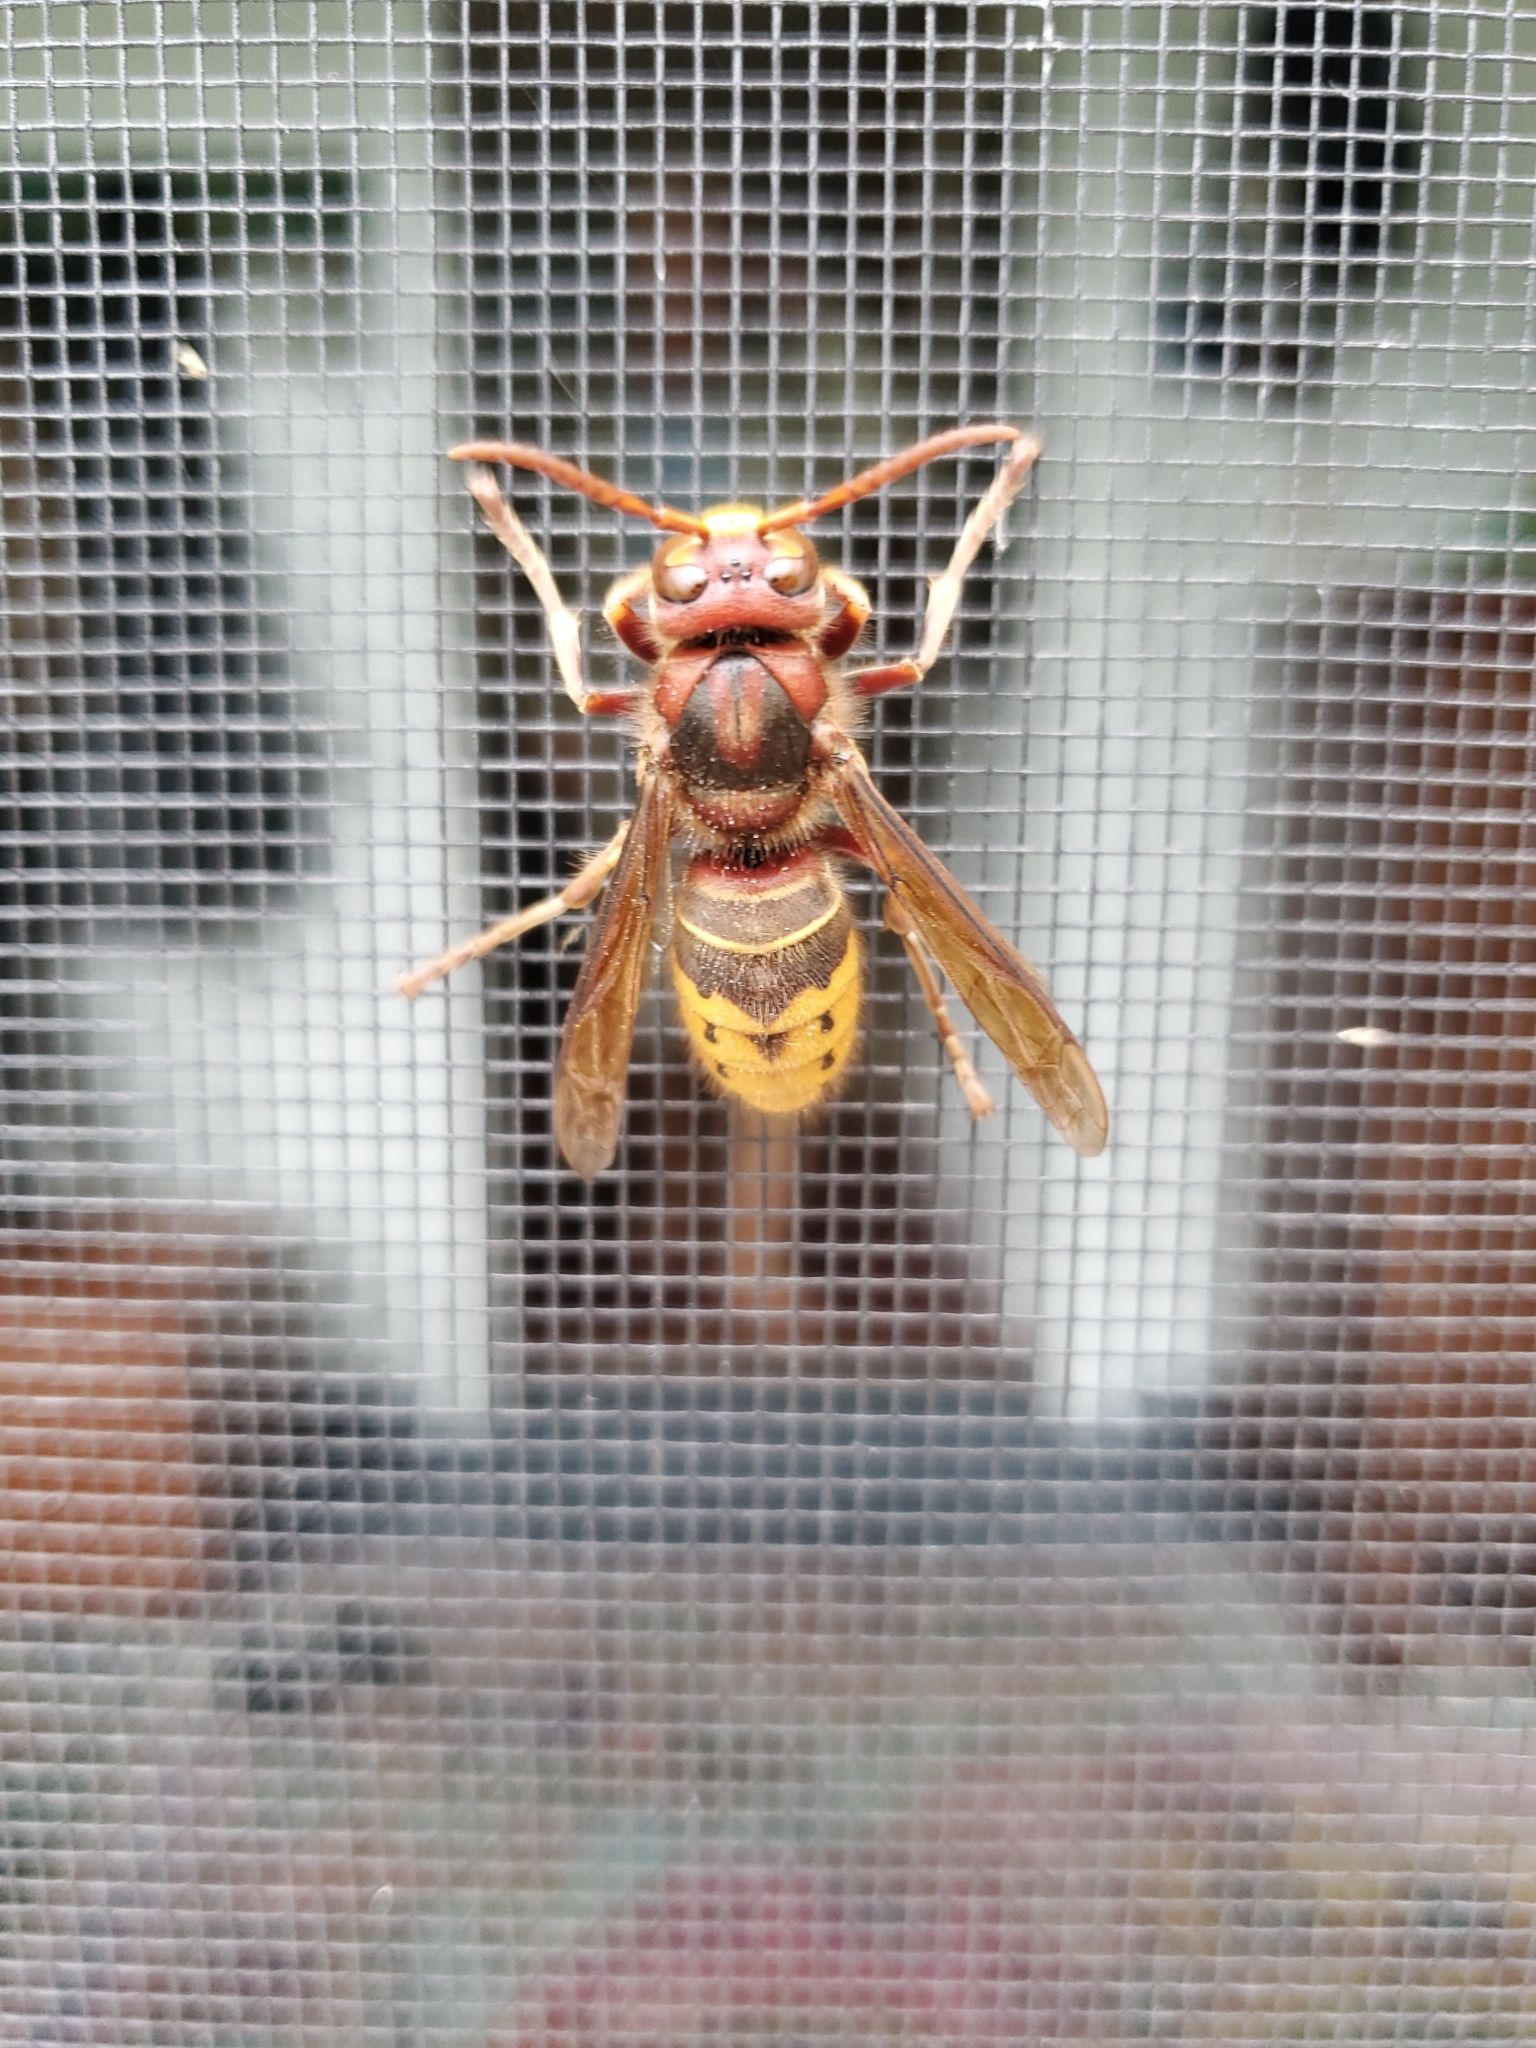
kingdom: Animalia
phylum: Arthropoda
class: Insecta
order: Hymenoptera
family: Vespidae
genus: Vespa
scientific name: Vespa crabro
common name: Hornet
